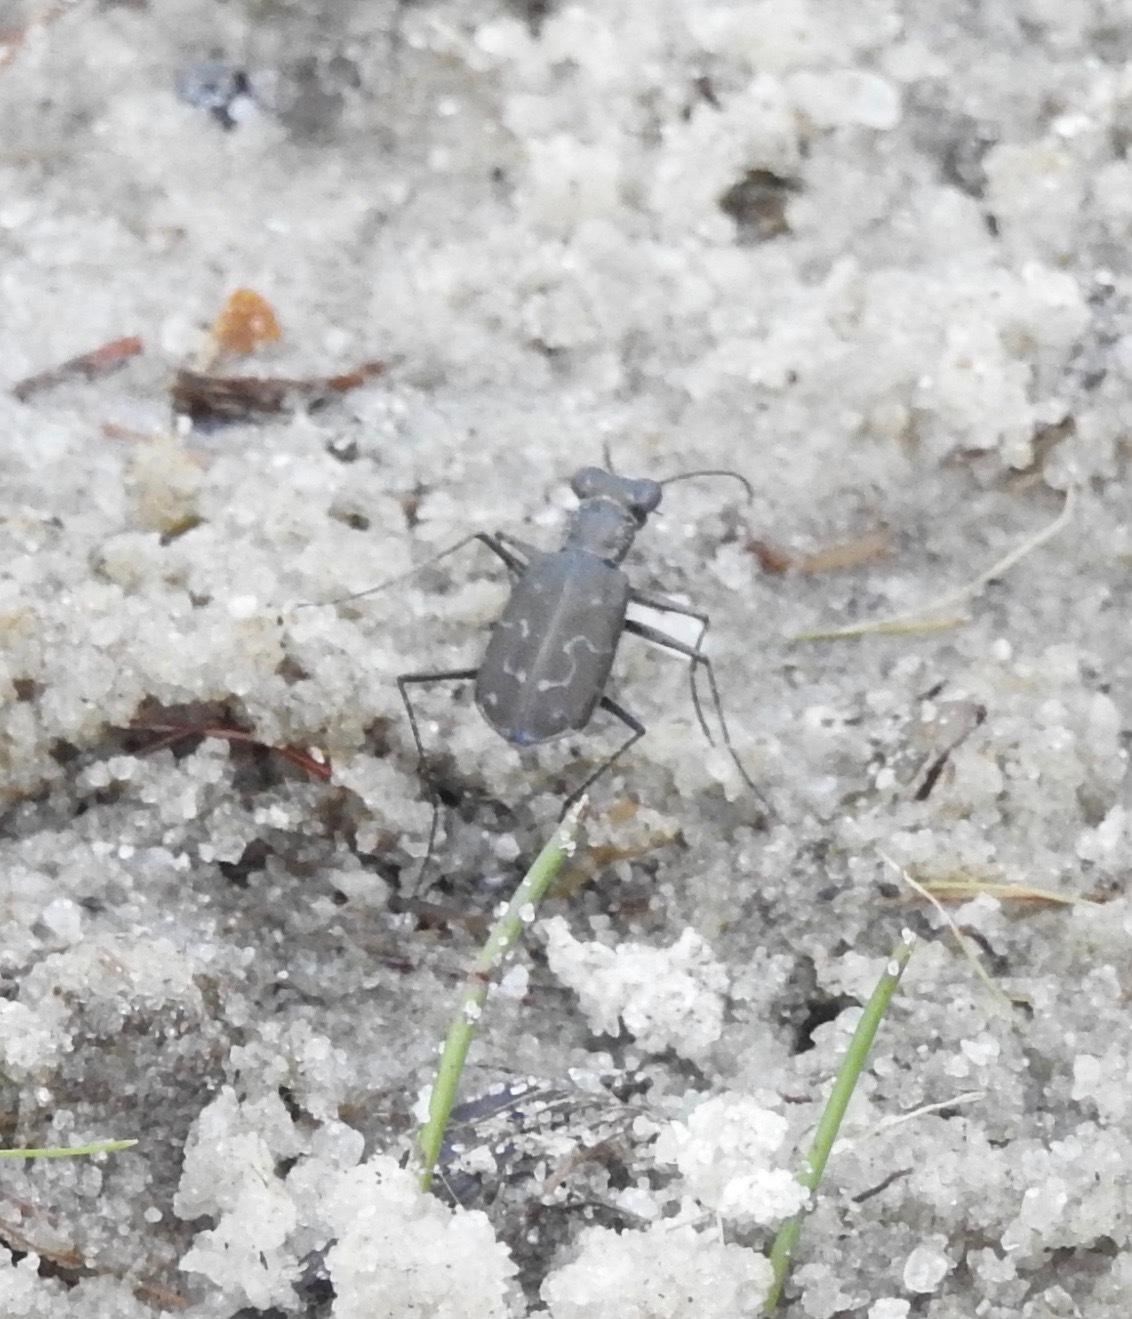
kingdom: Animalia
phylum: Arthropoda
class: Insecta
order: Coleoptera
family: Carabidae
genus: Cicindela
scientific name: Cicindela trifasciata
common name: Mudflat tiger beetle
